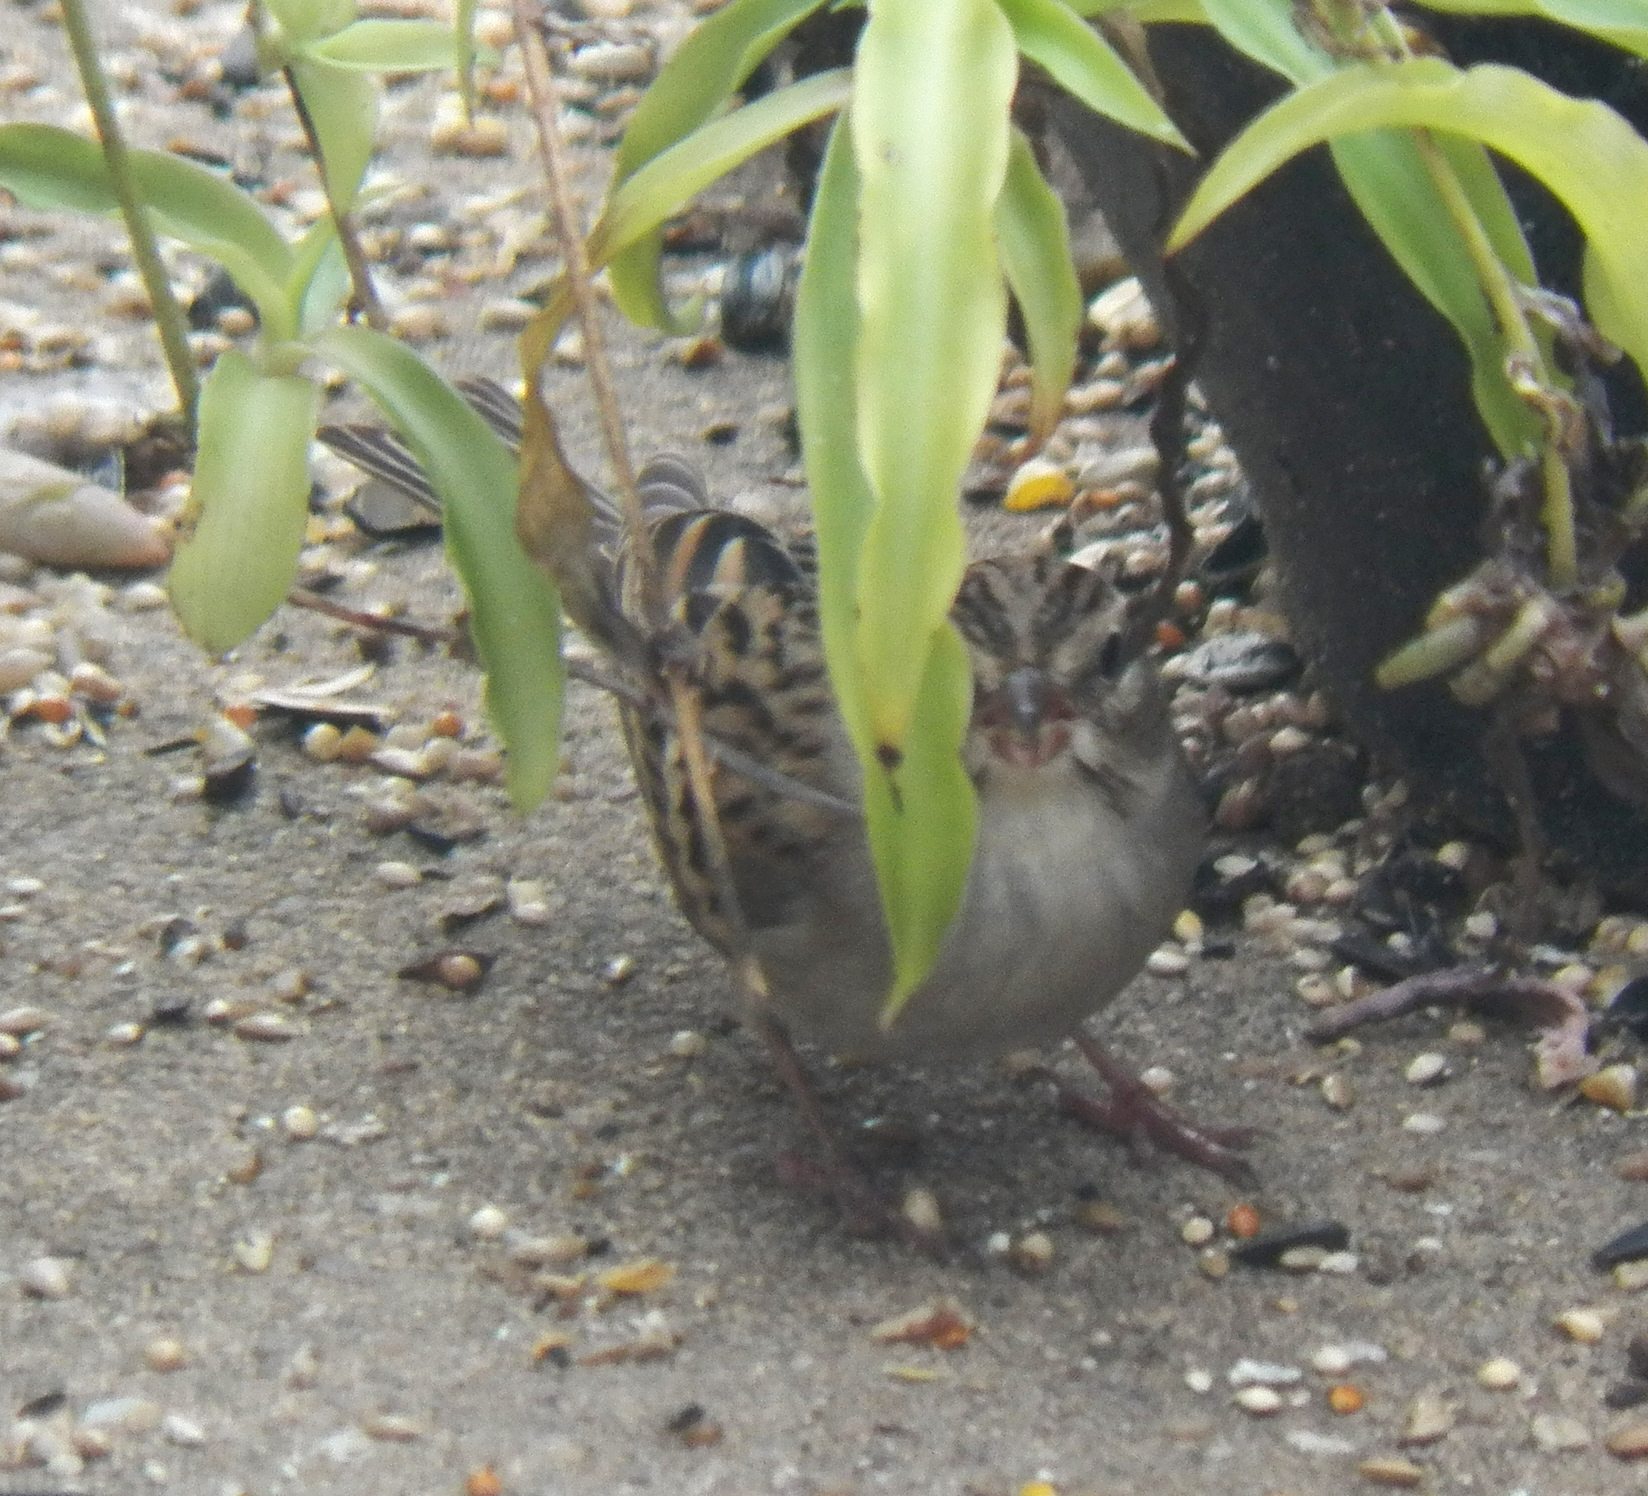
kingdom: Animalia
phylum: Chordata
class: Aves
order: Passeriformes
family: Passerellidae
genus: Spizella
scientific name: Spizella passerina
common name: Chipping sparrow
